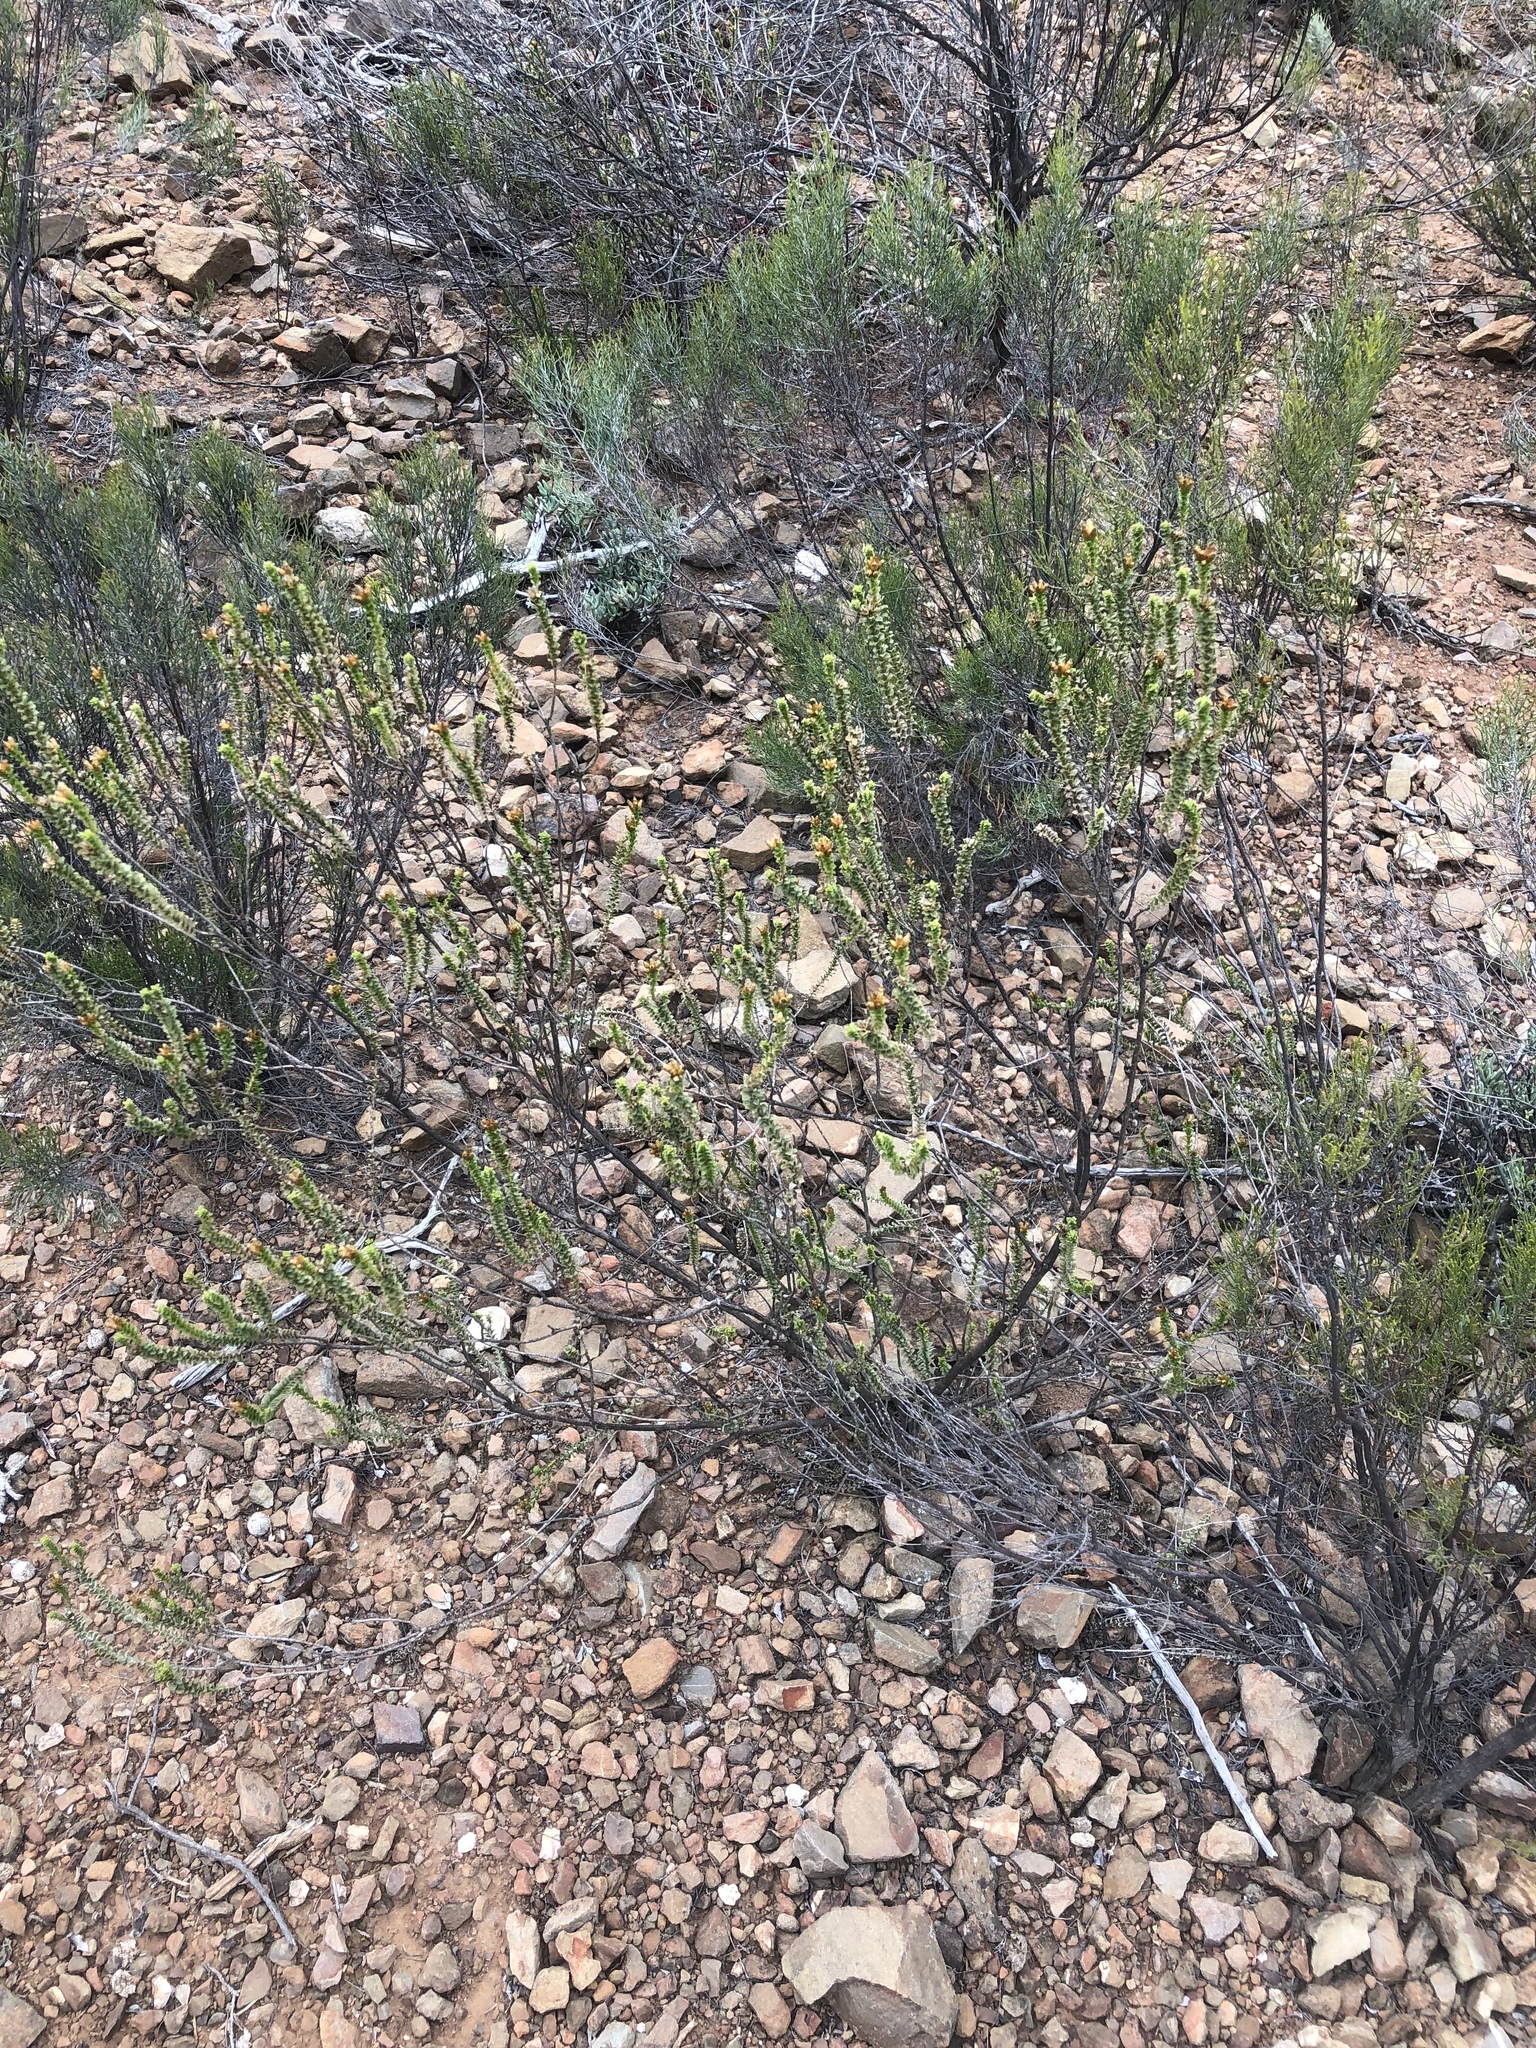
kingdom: Plantae
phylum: Tracheophyta
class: Magnoliopsida
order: Asterales
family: Asteraceae
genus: Oedera
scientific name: Oedera squarrosa
